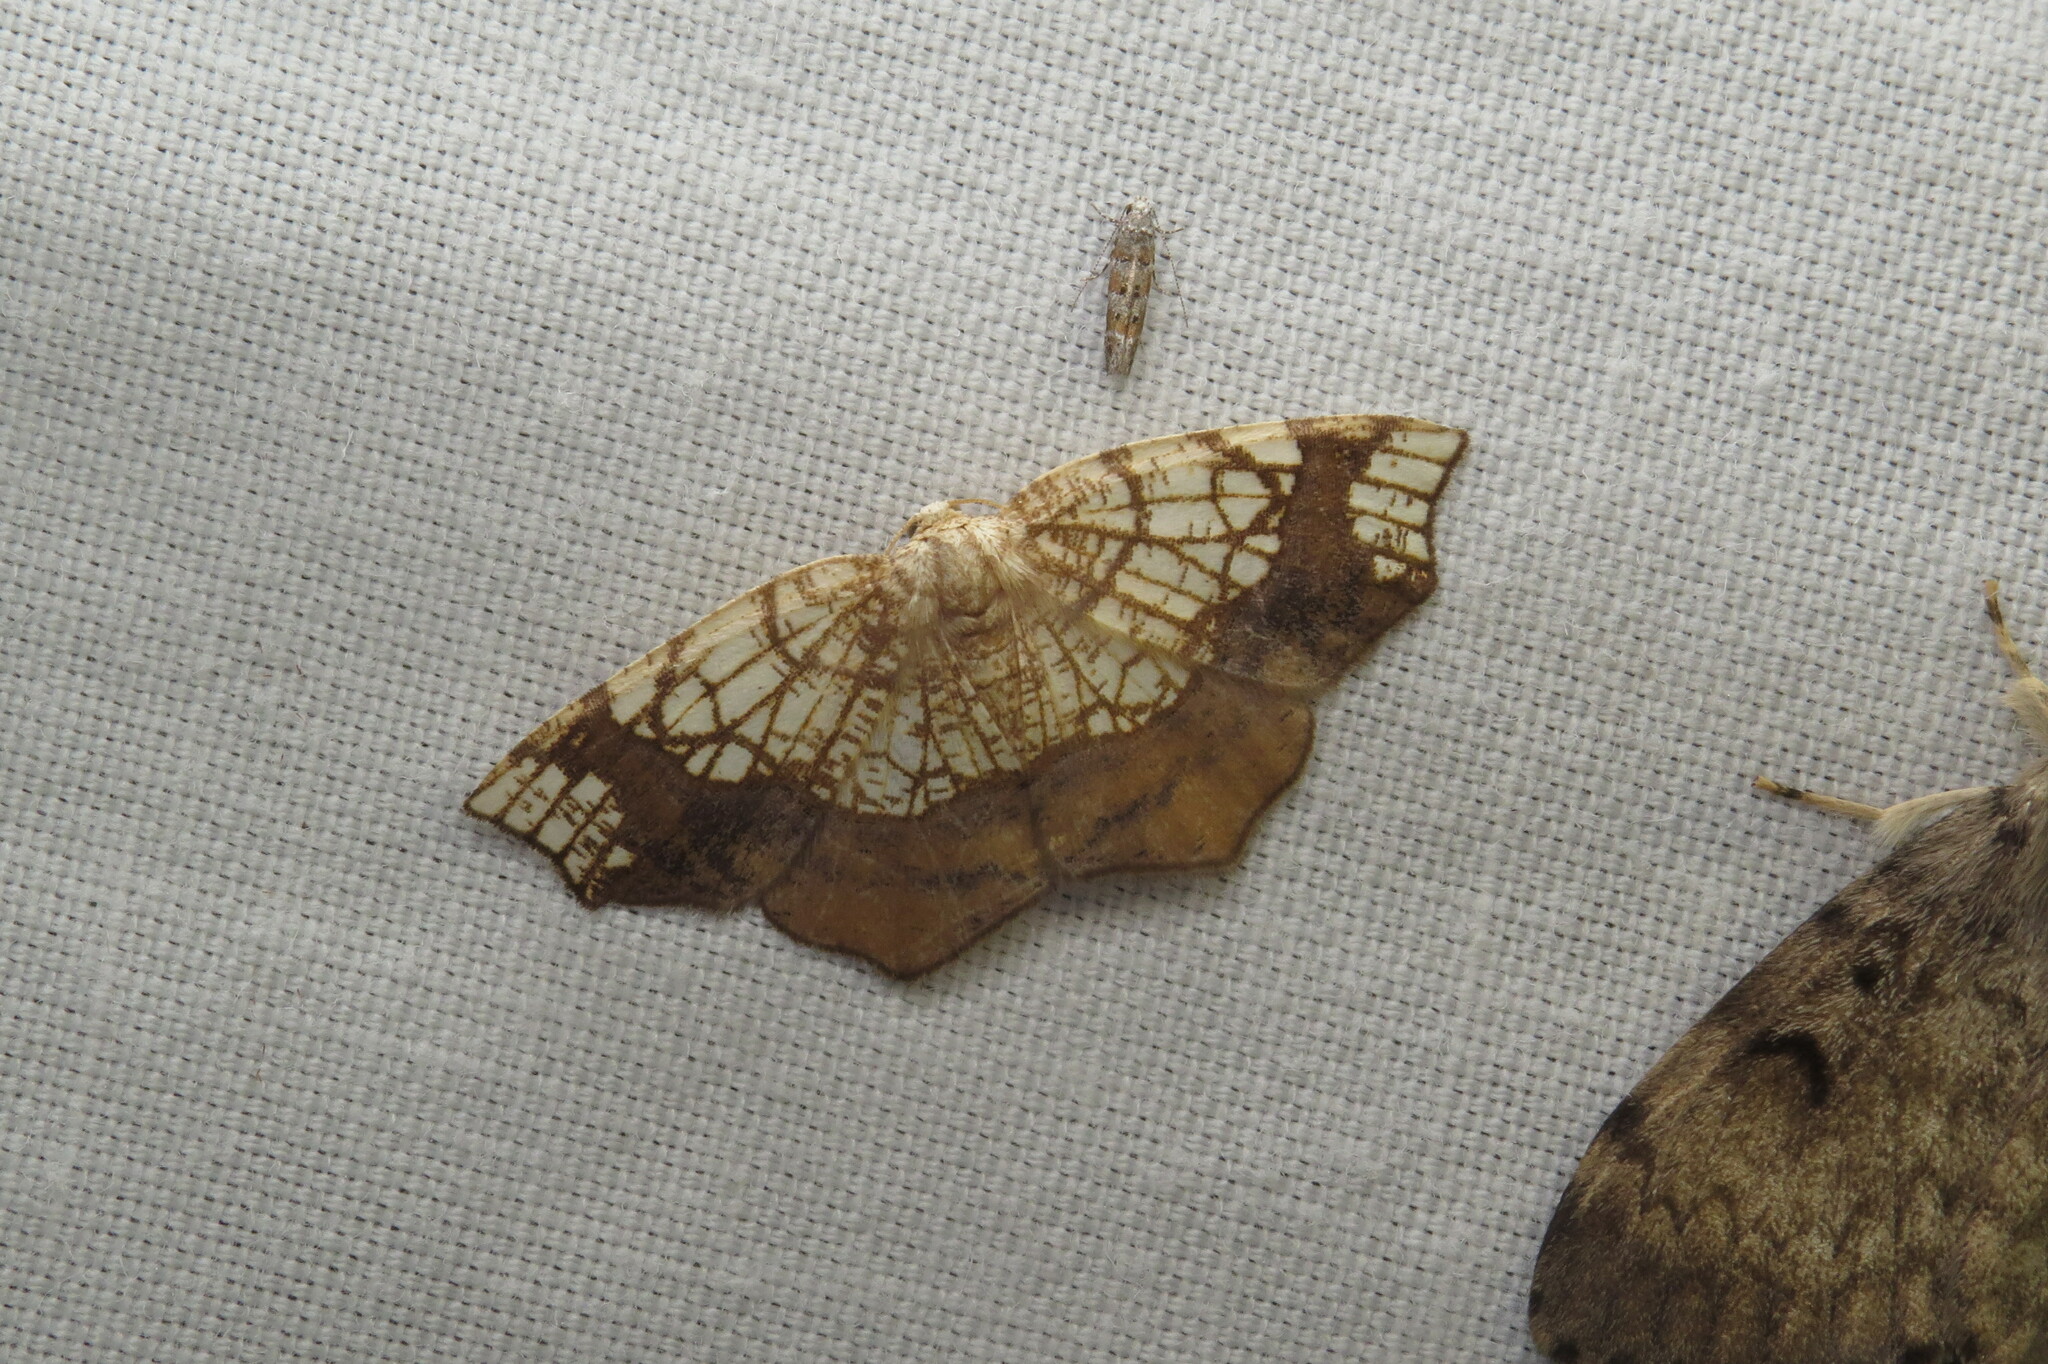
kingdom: Animalia
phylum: Arthropoda
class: Insecta
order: Lepidoptera
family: Geometridae
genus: Nematocampa
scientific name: Nematocampa resistaria
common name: Horned spanworm moth
